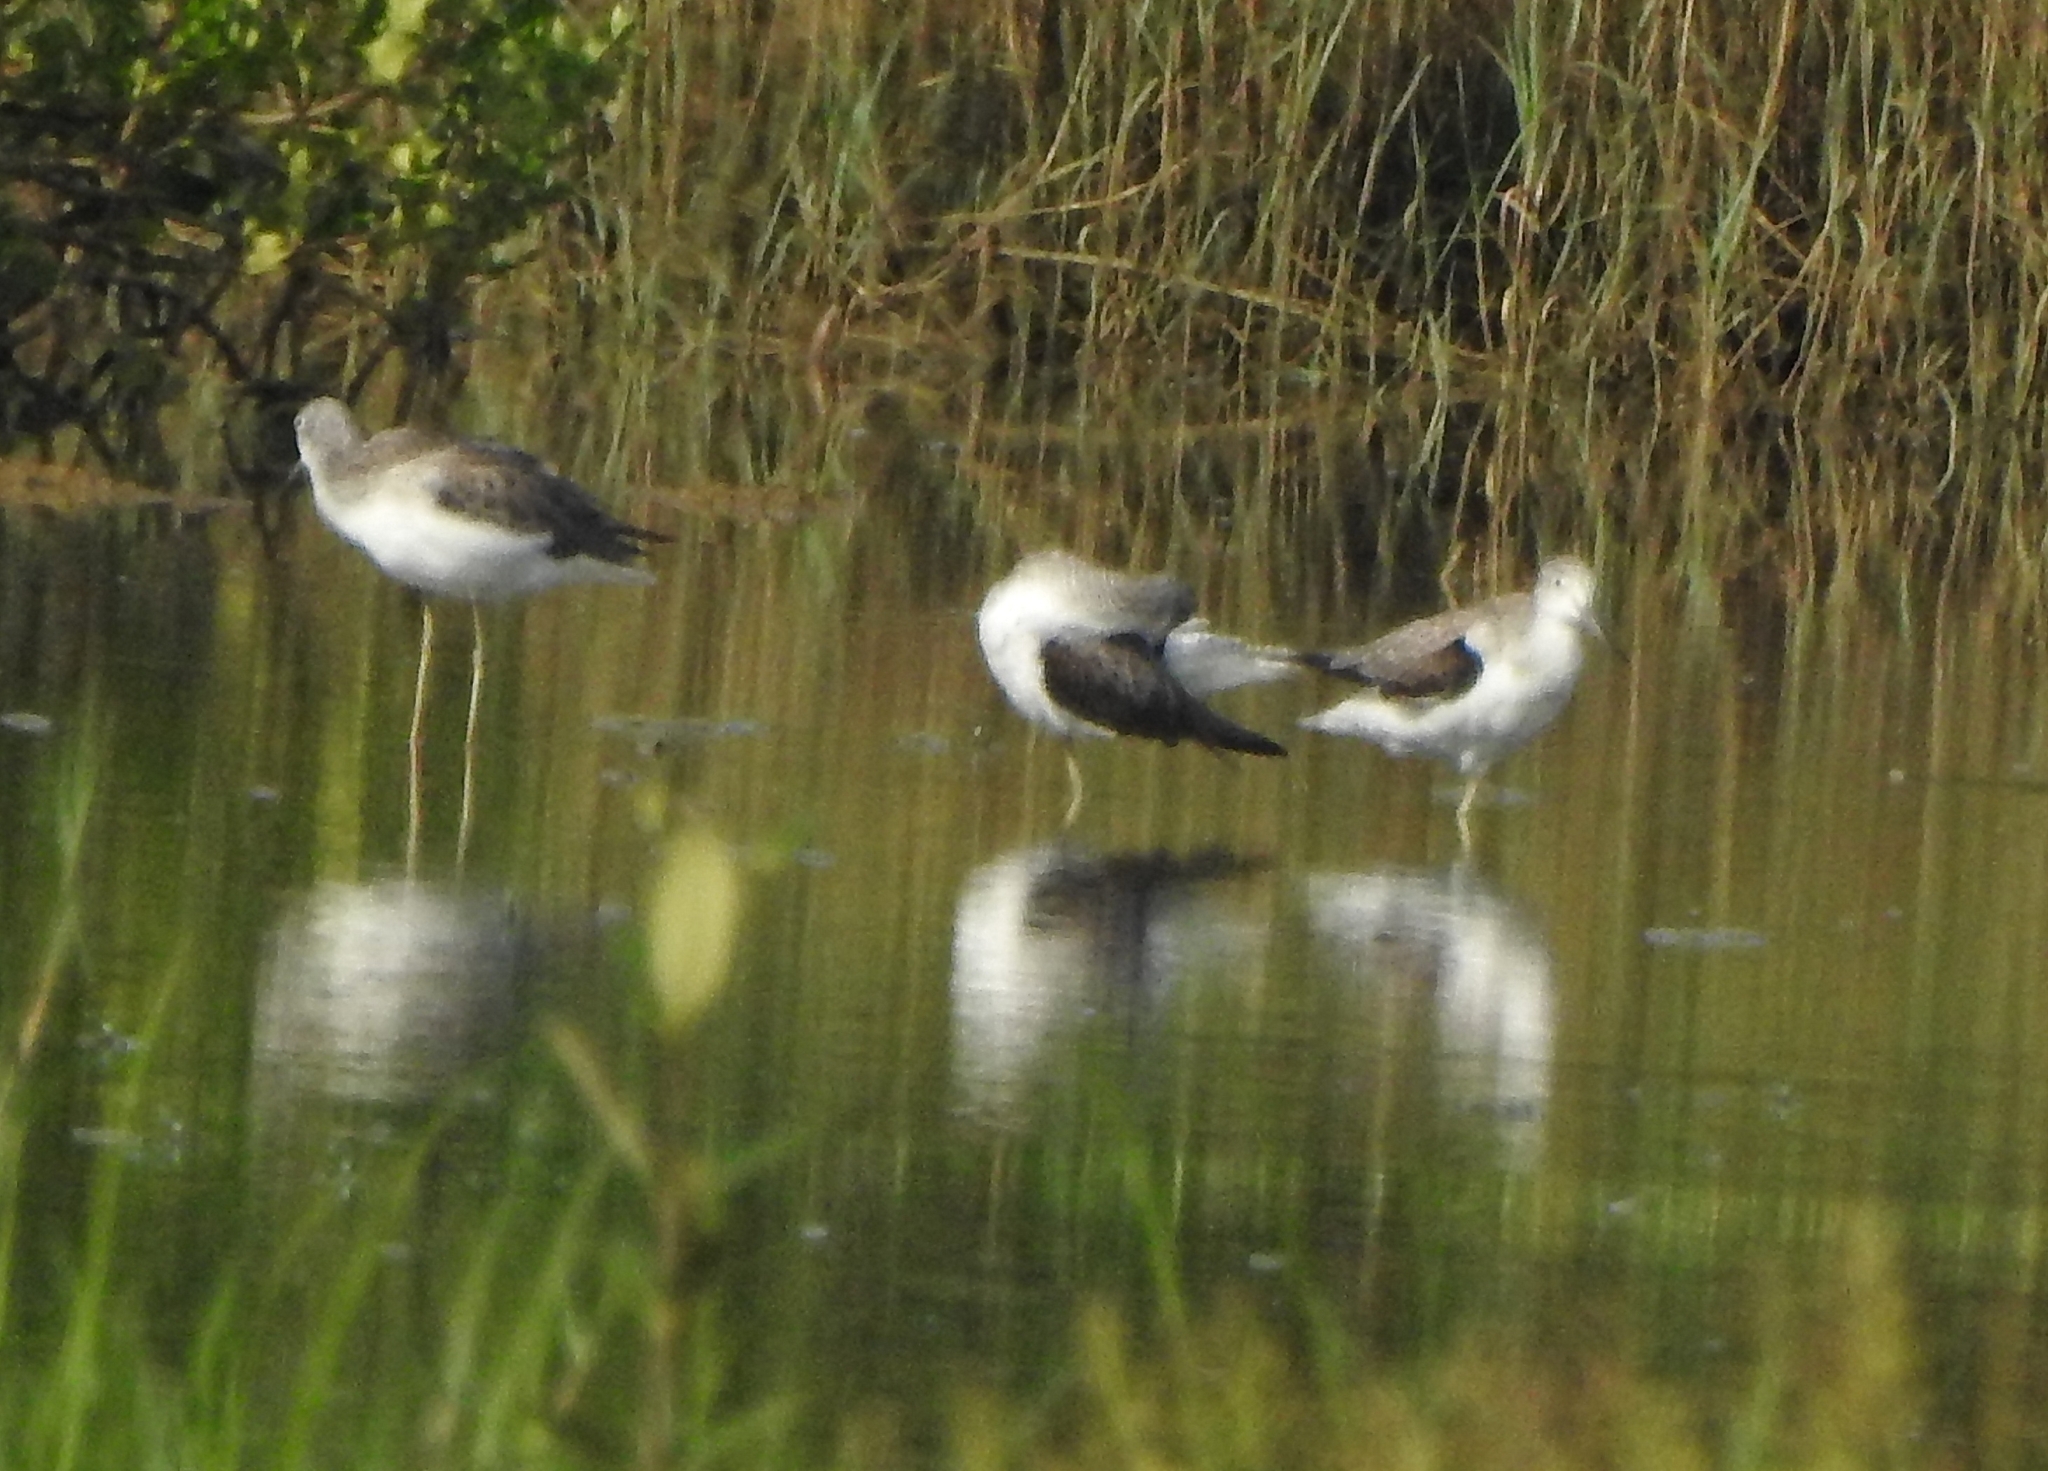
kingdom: Animalia
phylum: Chordata
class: Aves
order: Charadriiformes
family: Scolopacidae
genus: Tringa
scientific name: Tringa nebularia
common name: Common greenshank
